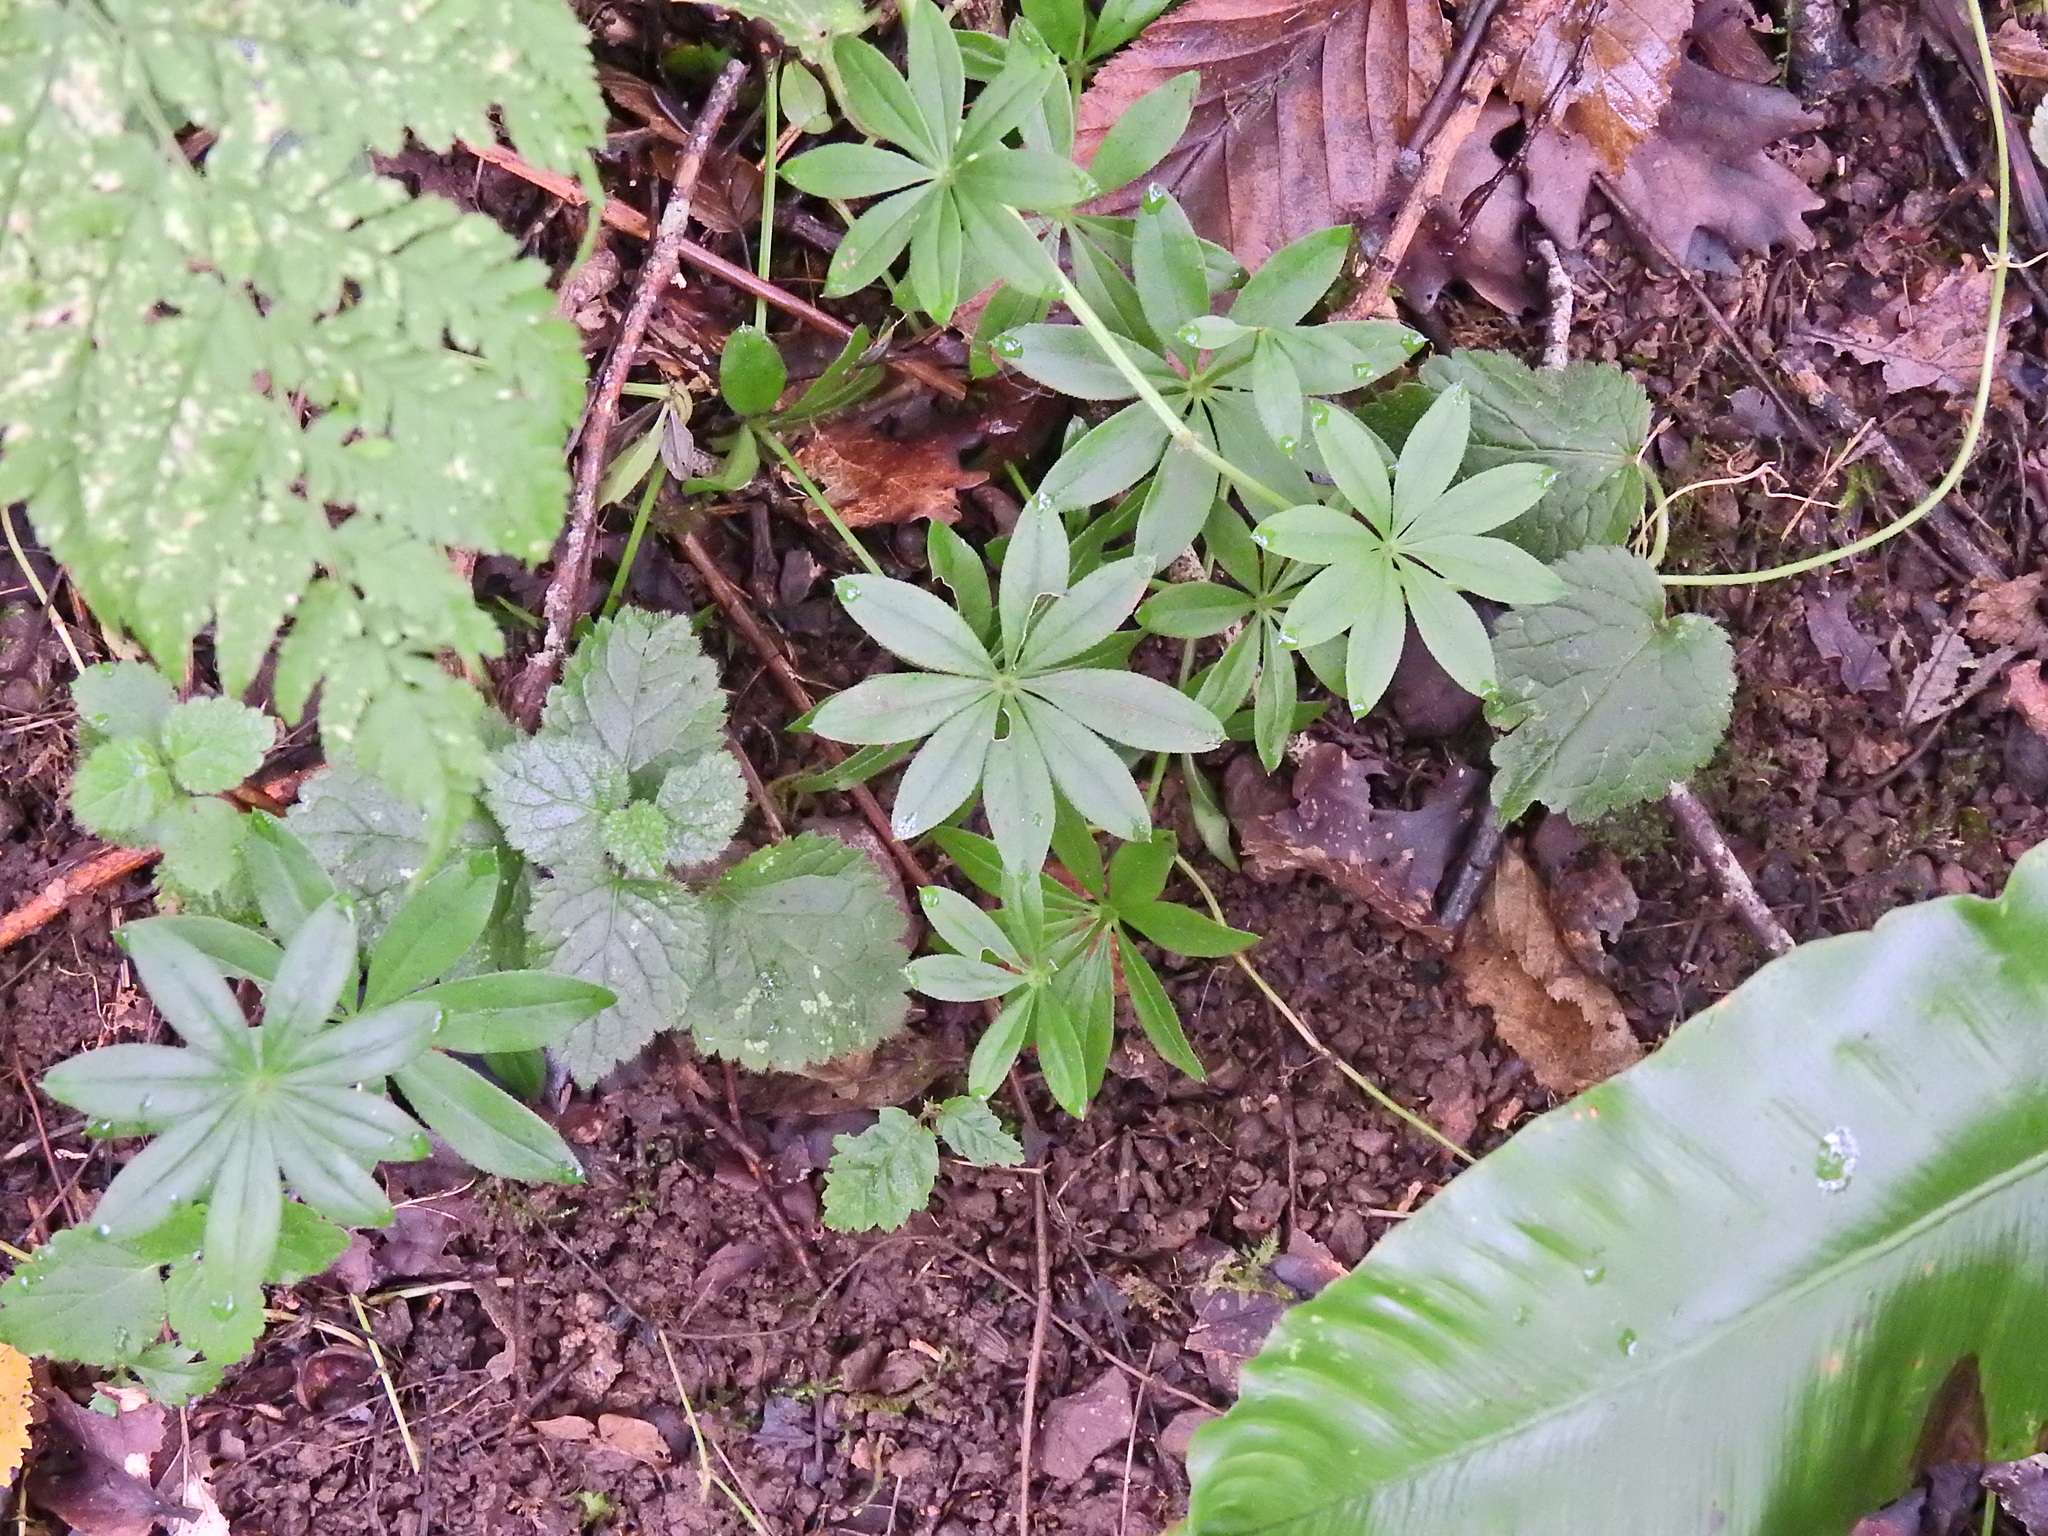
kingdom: Plantae
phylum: Tracheophyta
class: Magnoliopsida
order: Gentianales
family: Rubiaceae
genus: Galium
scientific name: Galium odoratum
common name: Sweet woodruff
